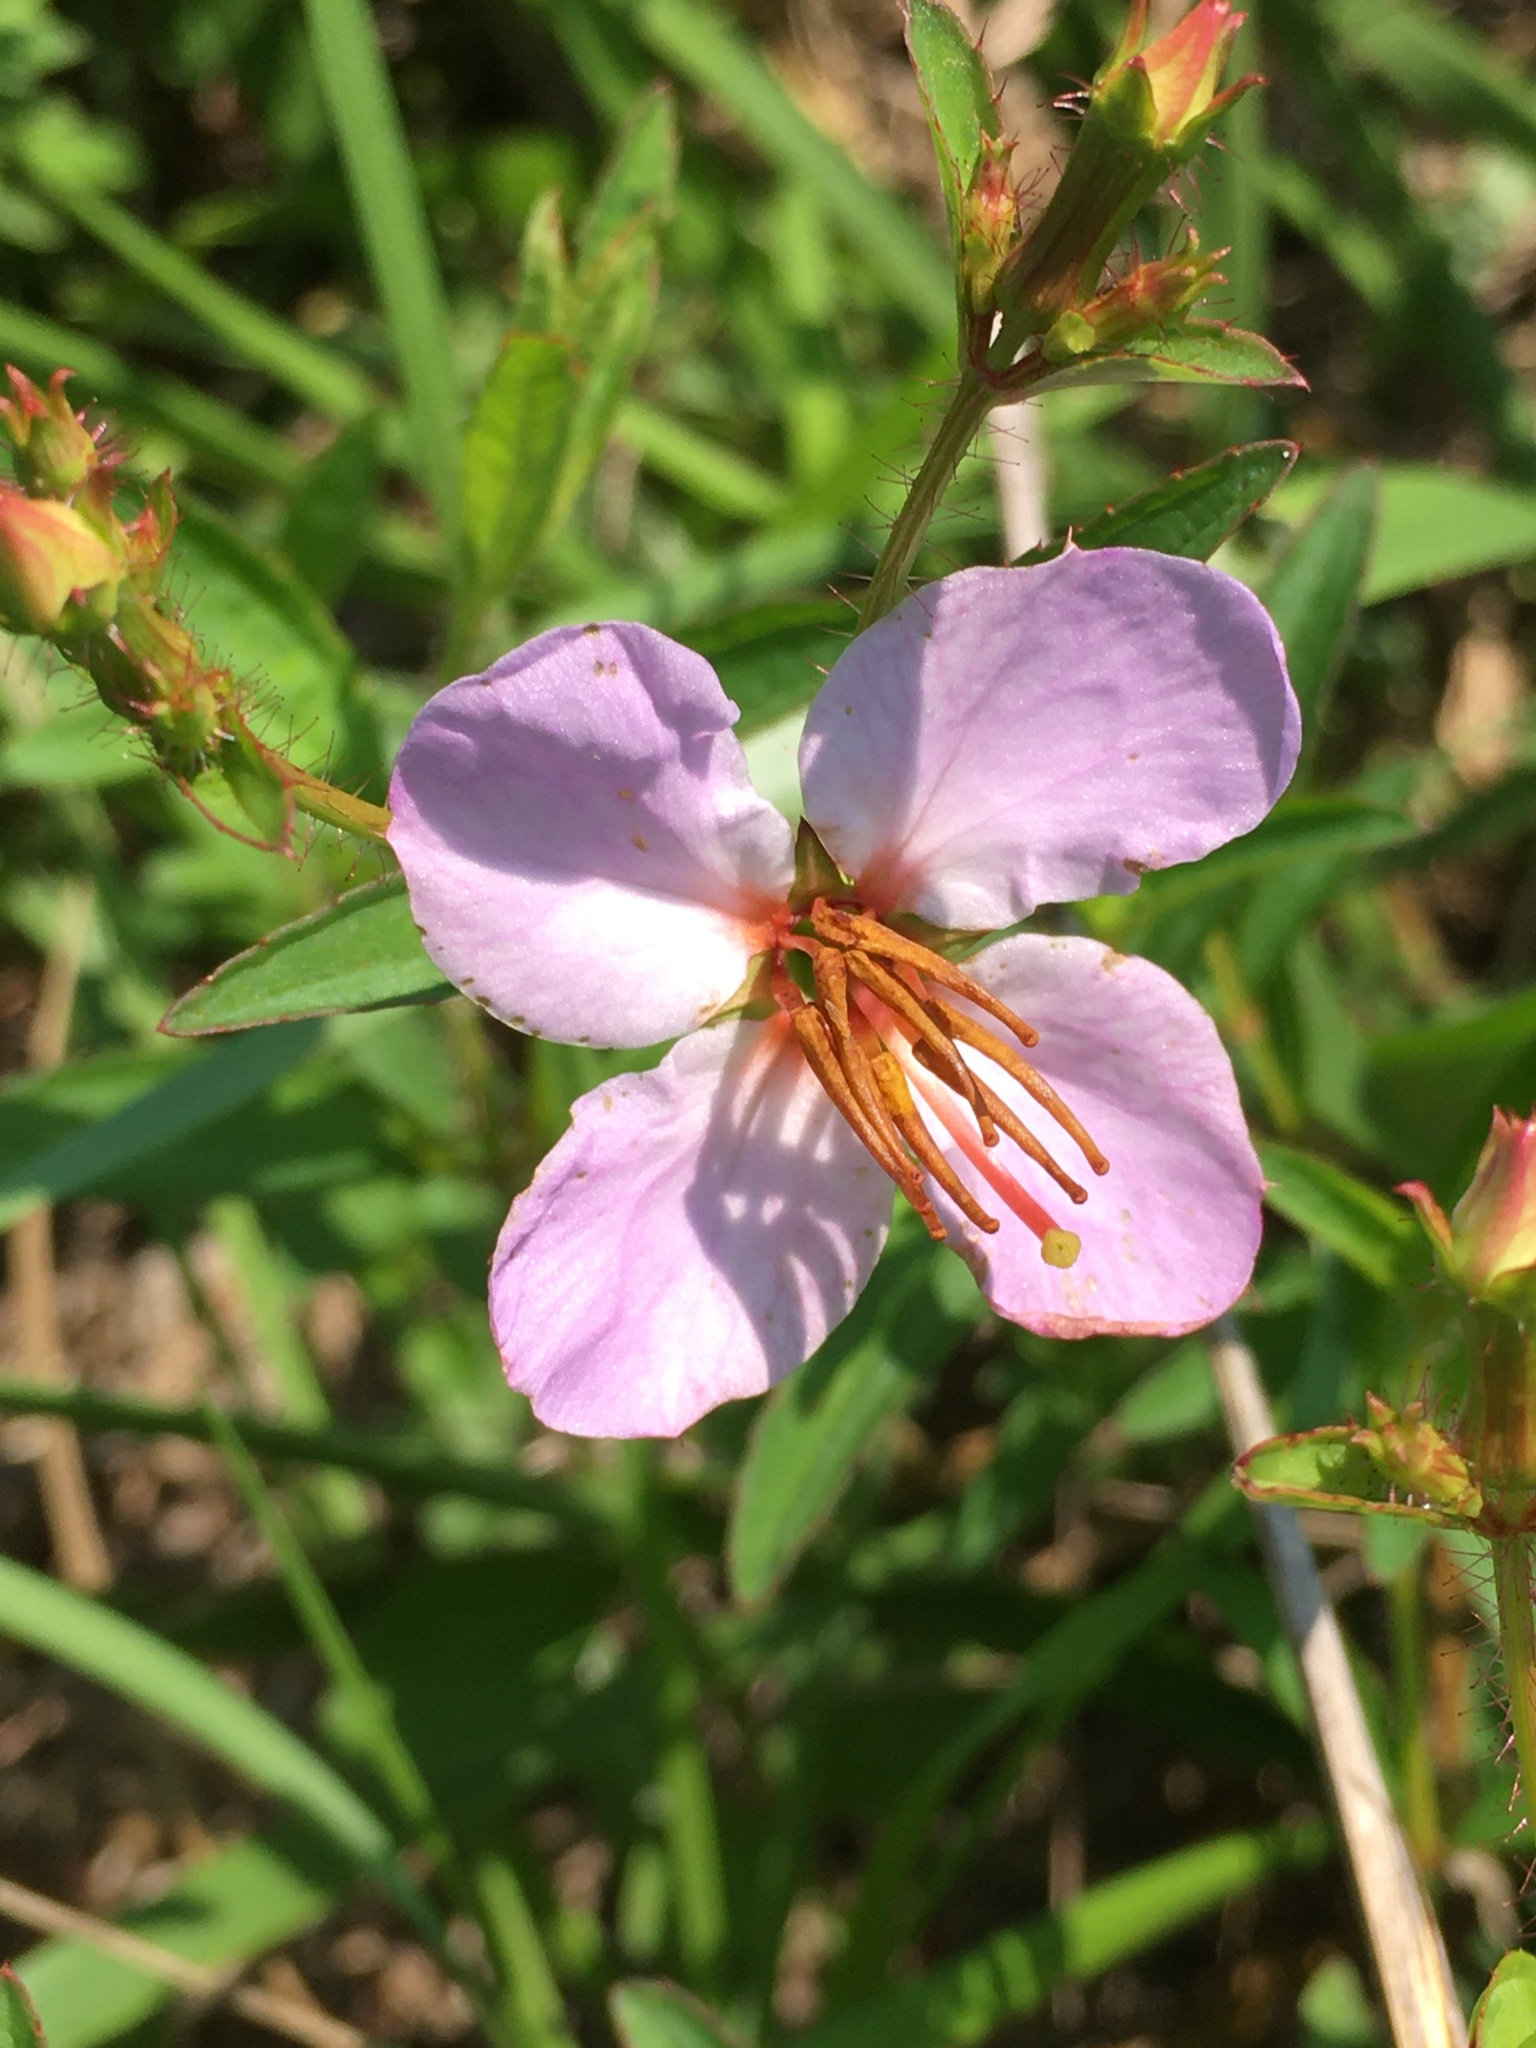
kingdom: Plantae
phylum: Tracheophyta
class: Magnoliopsida
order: Myrtales
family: Melastomataceae
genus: Rhexia
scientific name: Rhexia mariana
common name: Dull meadow-pitcher
